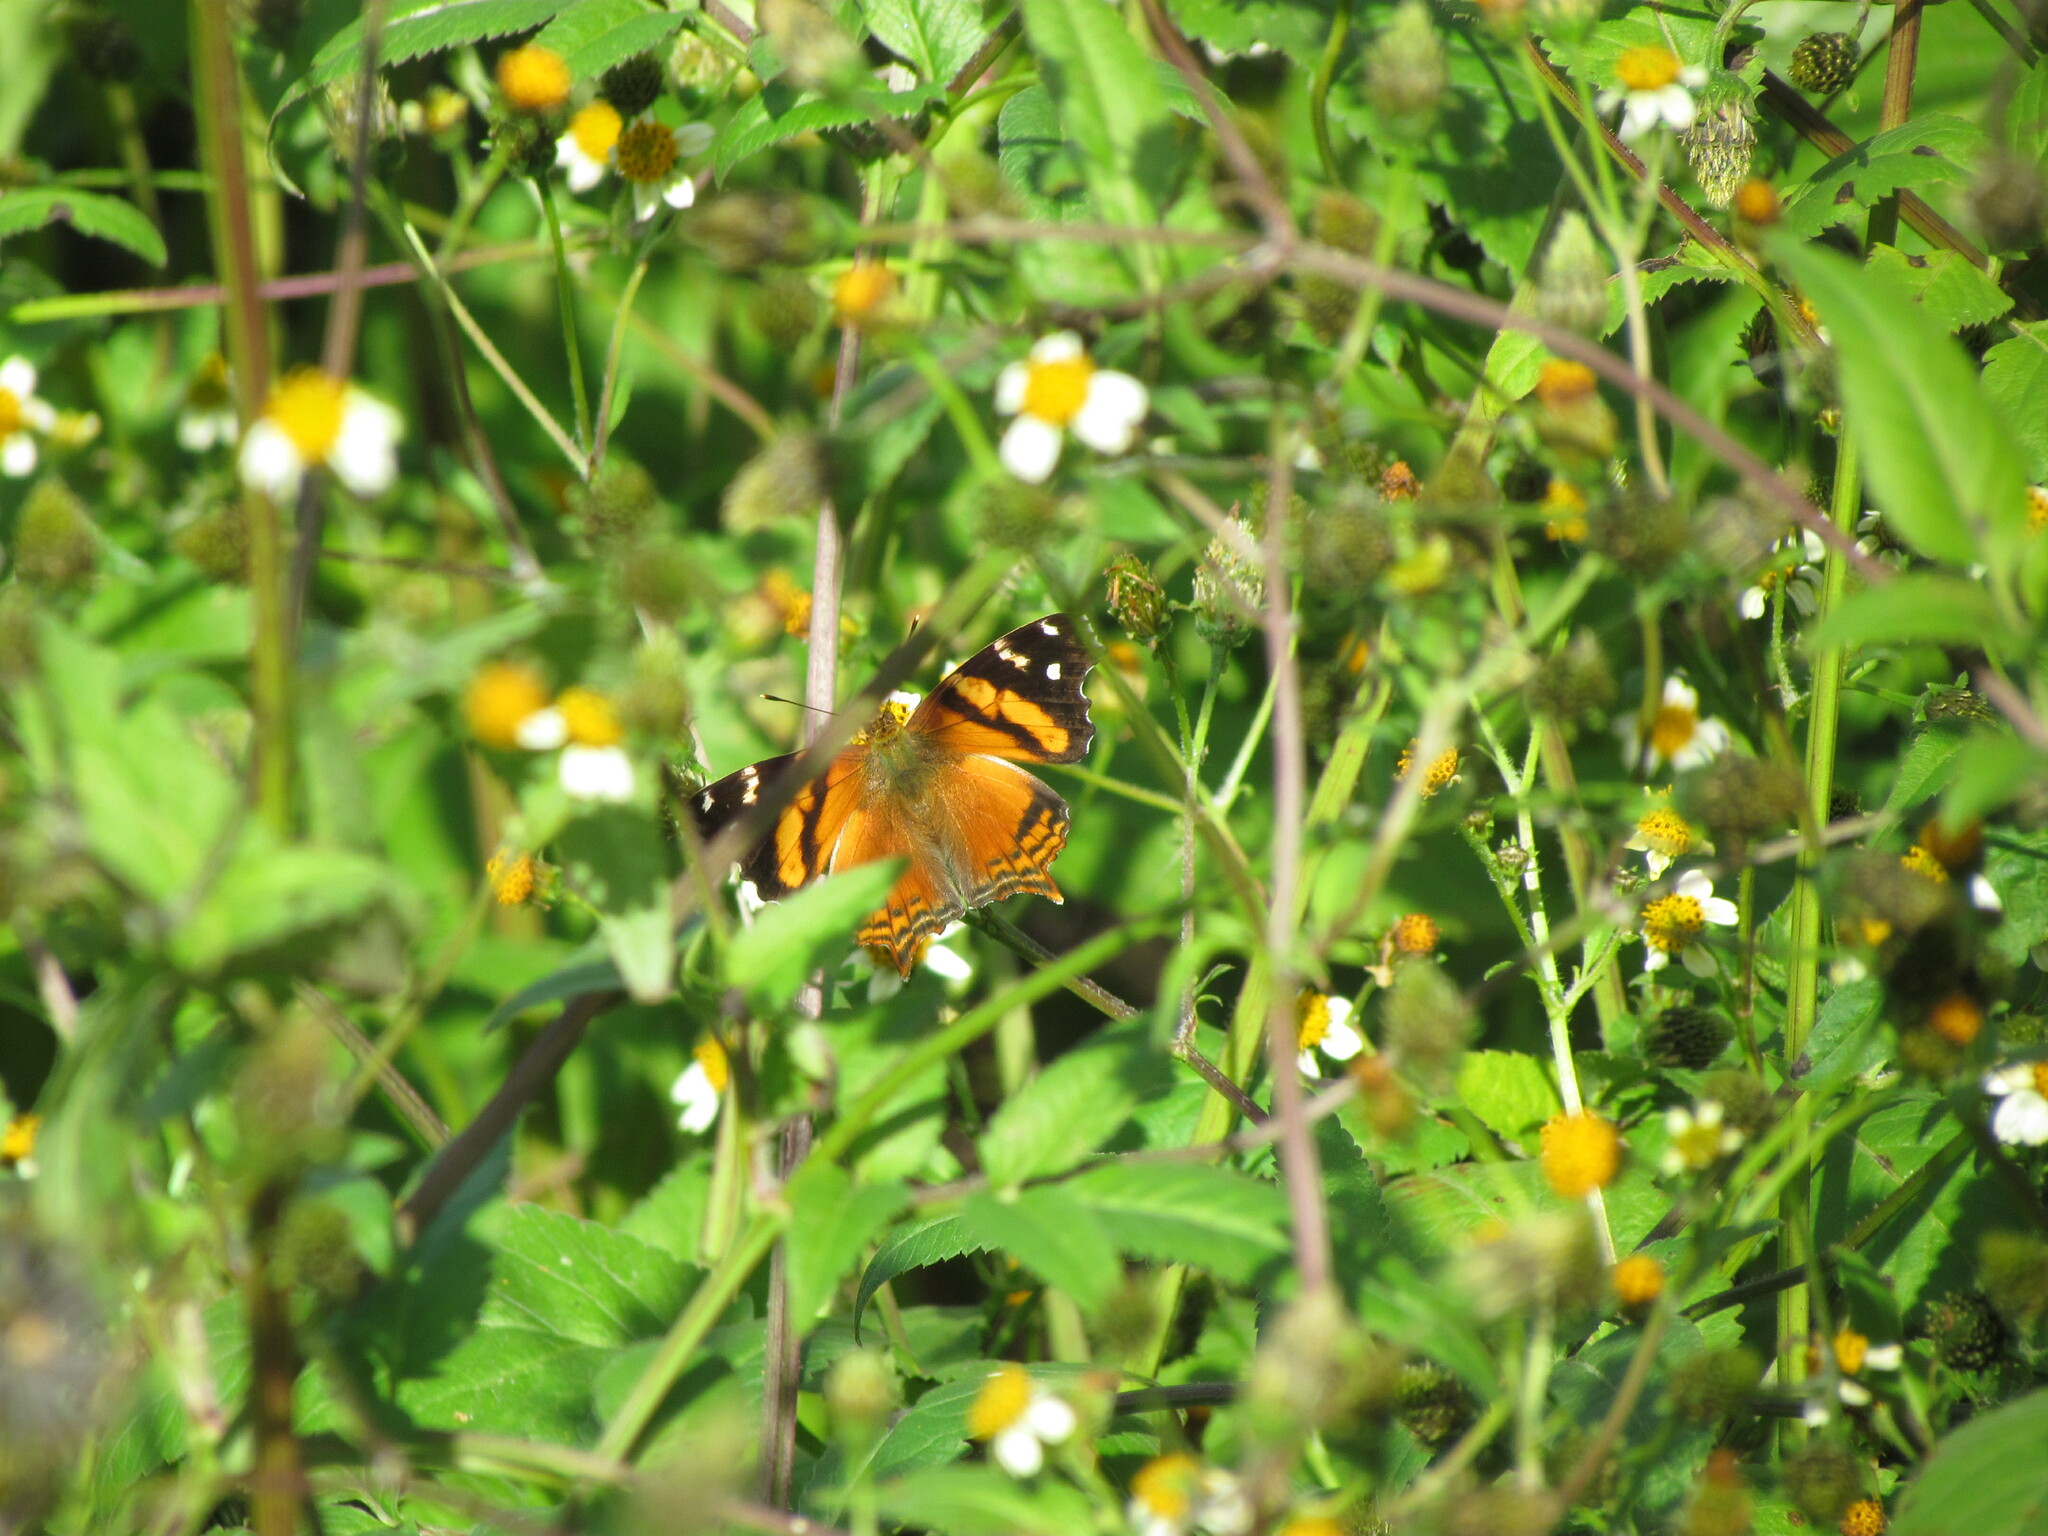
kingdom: Animalia
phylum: Arthropoda
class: Insecta
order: Lepidoptera
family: Nymphalidae
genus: Hypanartia
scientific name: Hypanartia bella
